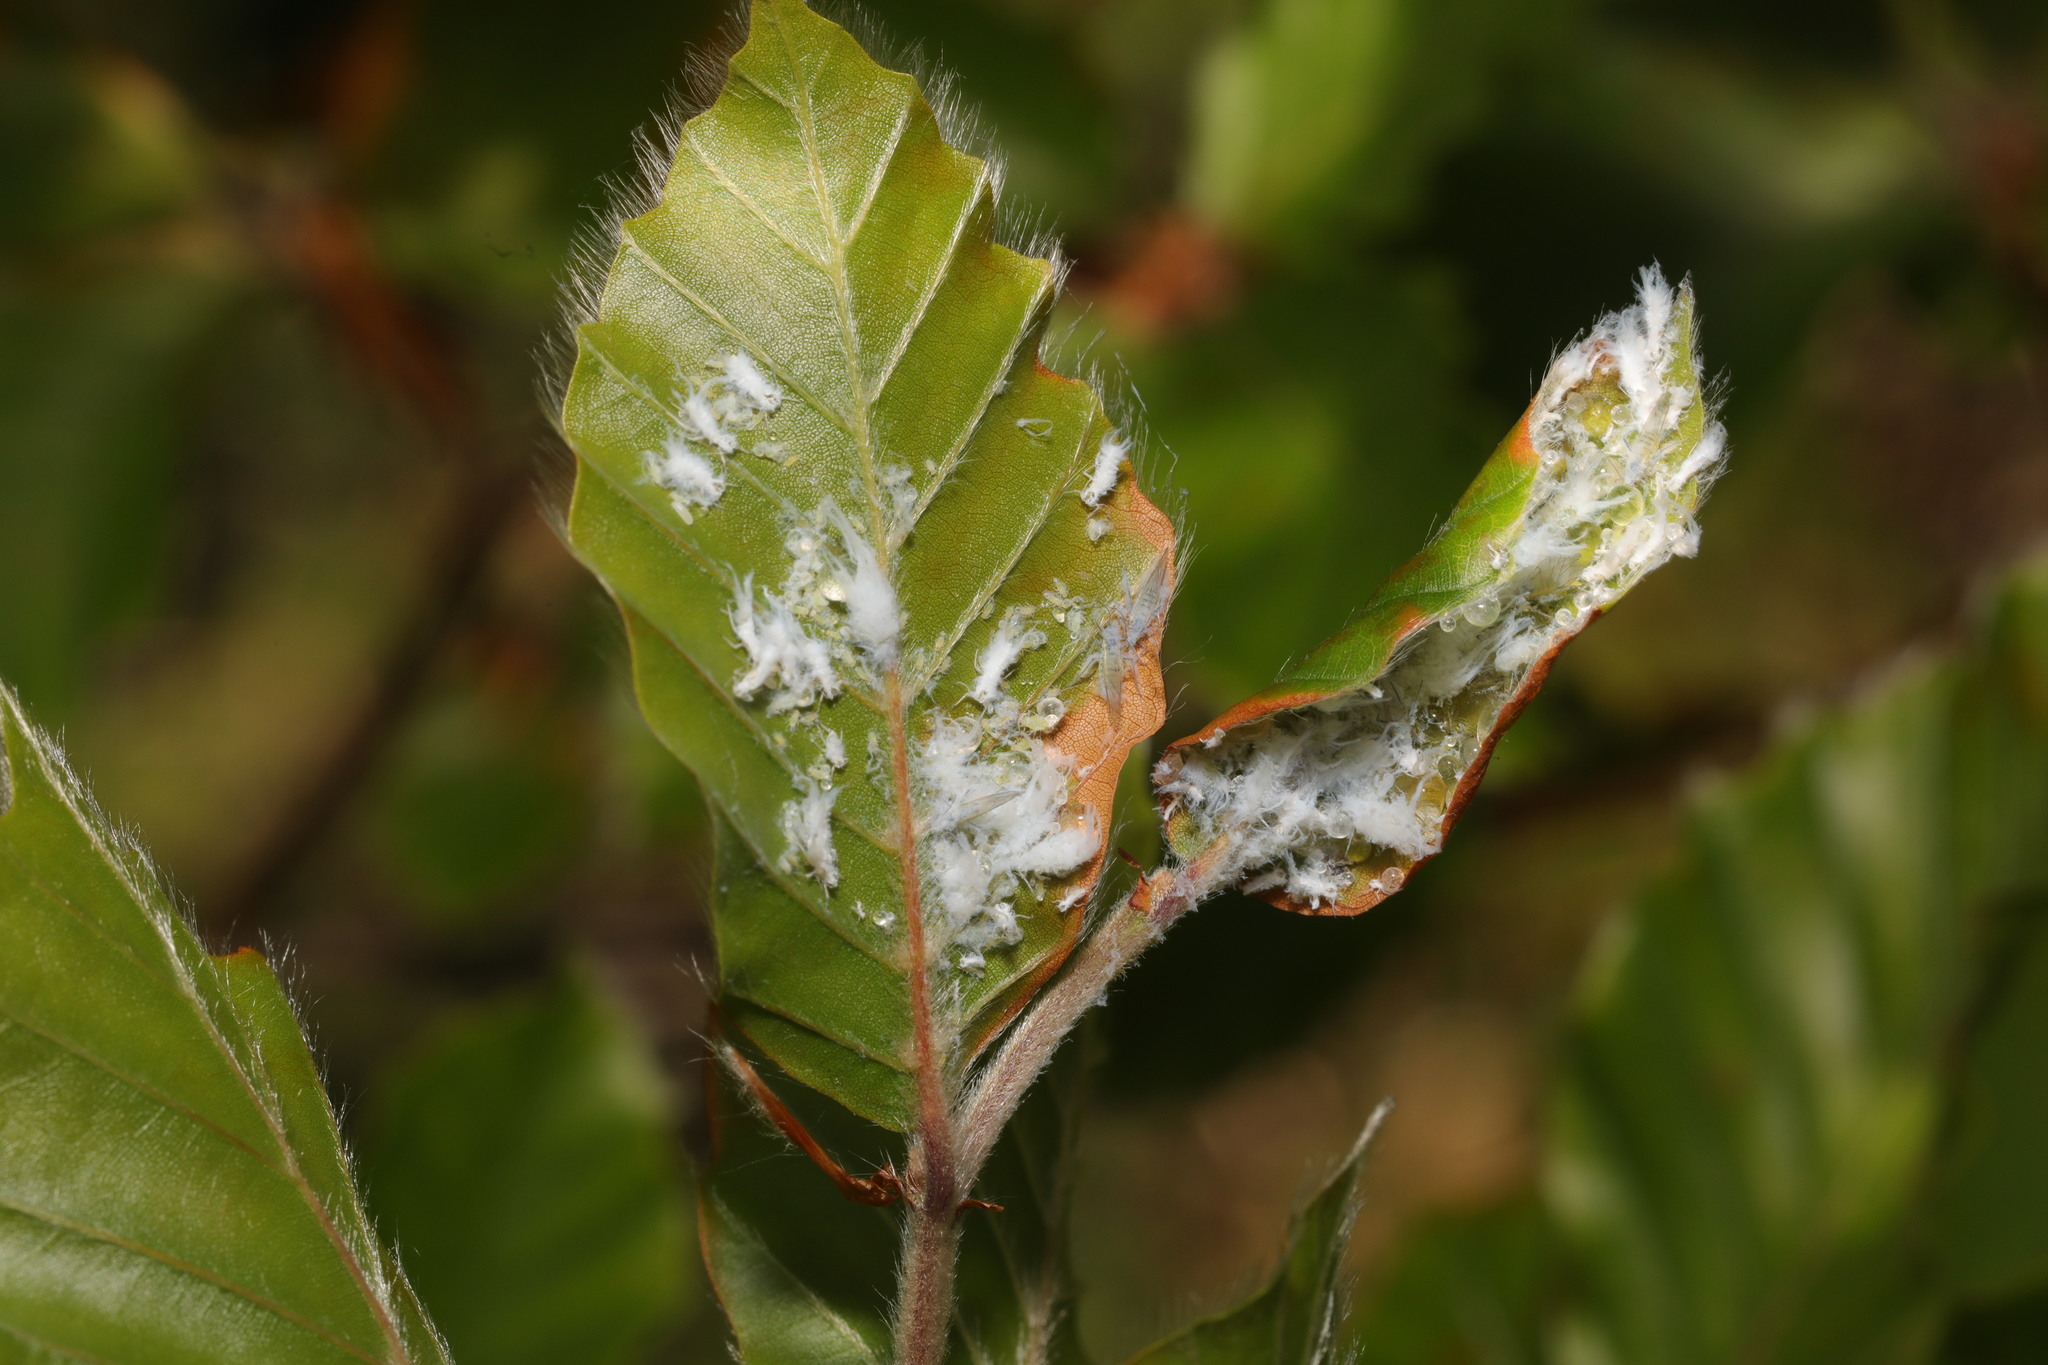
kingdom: Animalia
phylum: Arthropoda
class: Insecta
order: Hemiptera
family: Aphididae
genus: Phyllaphis
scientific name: Phyllaphis fagi
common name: Beech aphid
